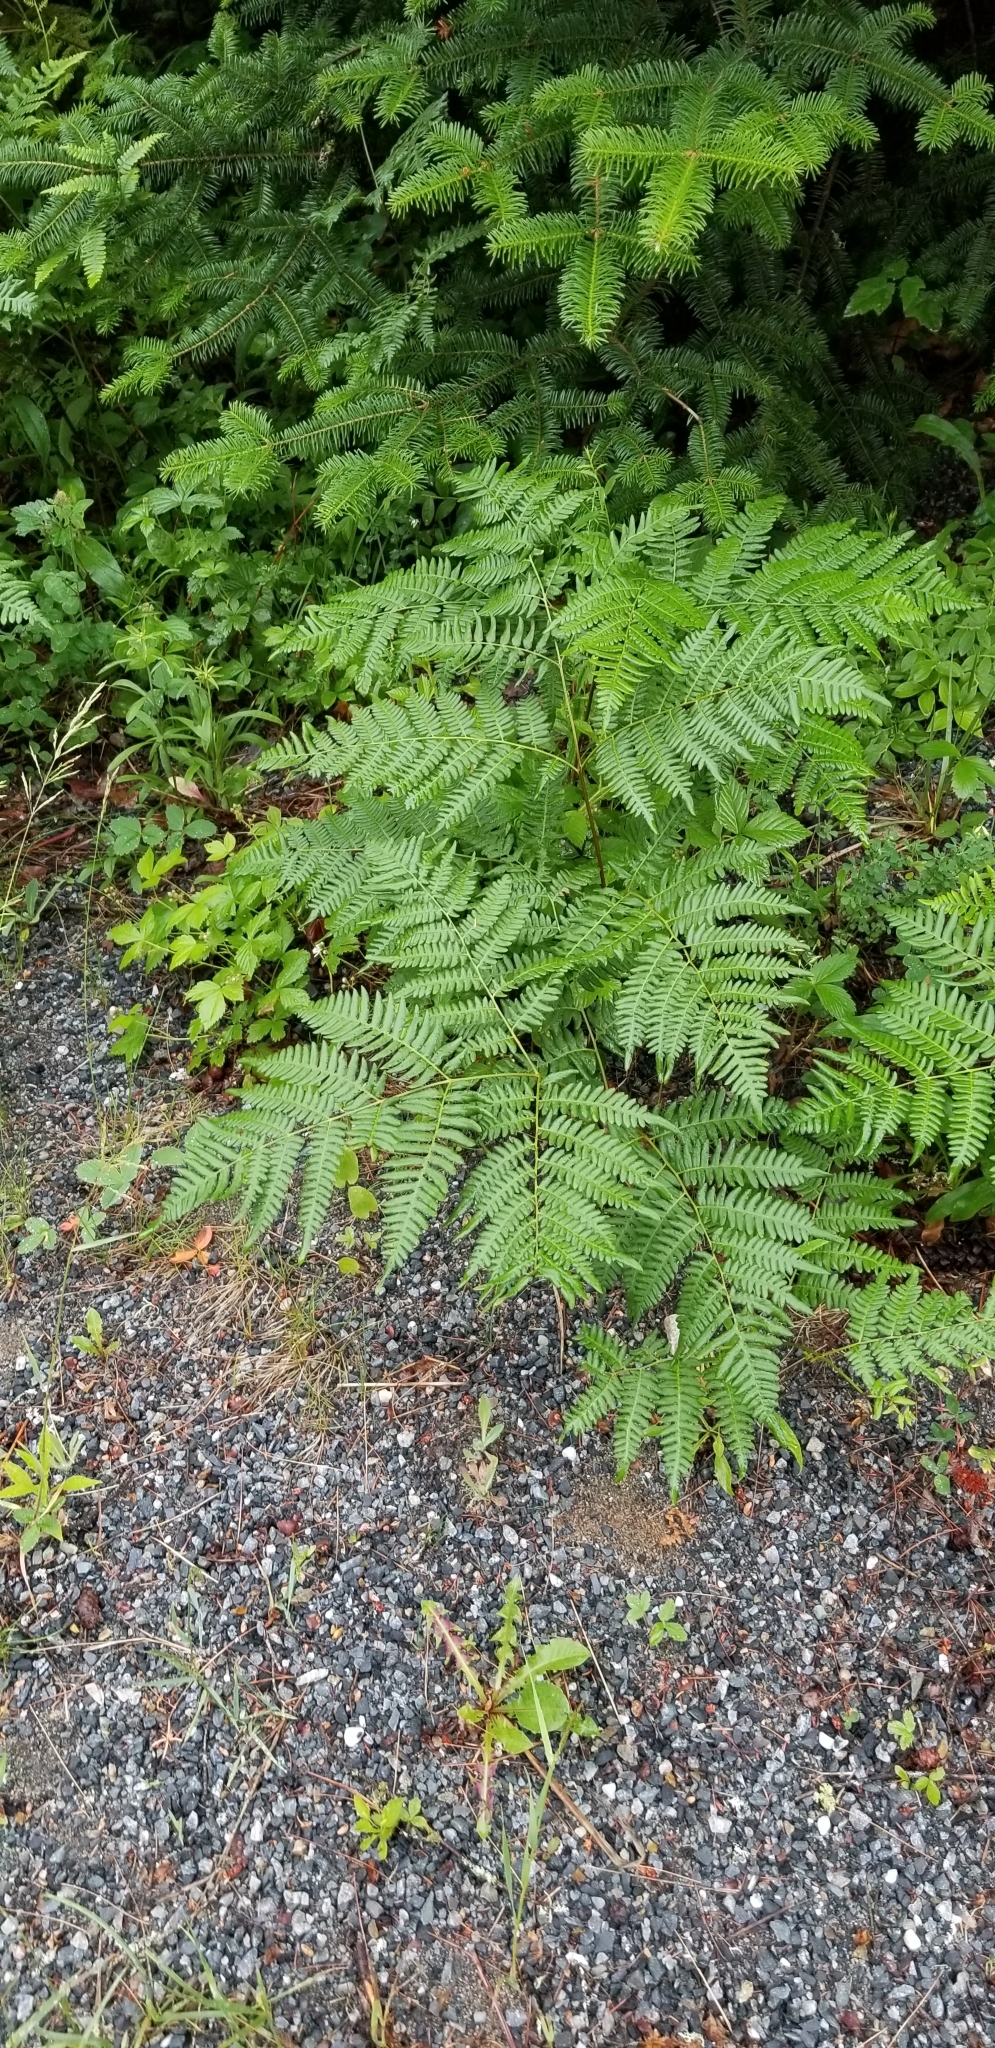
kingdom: Plantae
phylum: Tracheophyta
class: Polypodiopsida
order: Polypodiales
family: Dennstaedtiaceae
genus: Pteridium
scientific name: Pteridium aquilinum
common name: Bracken
